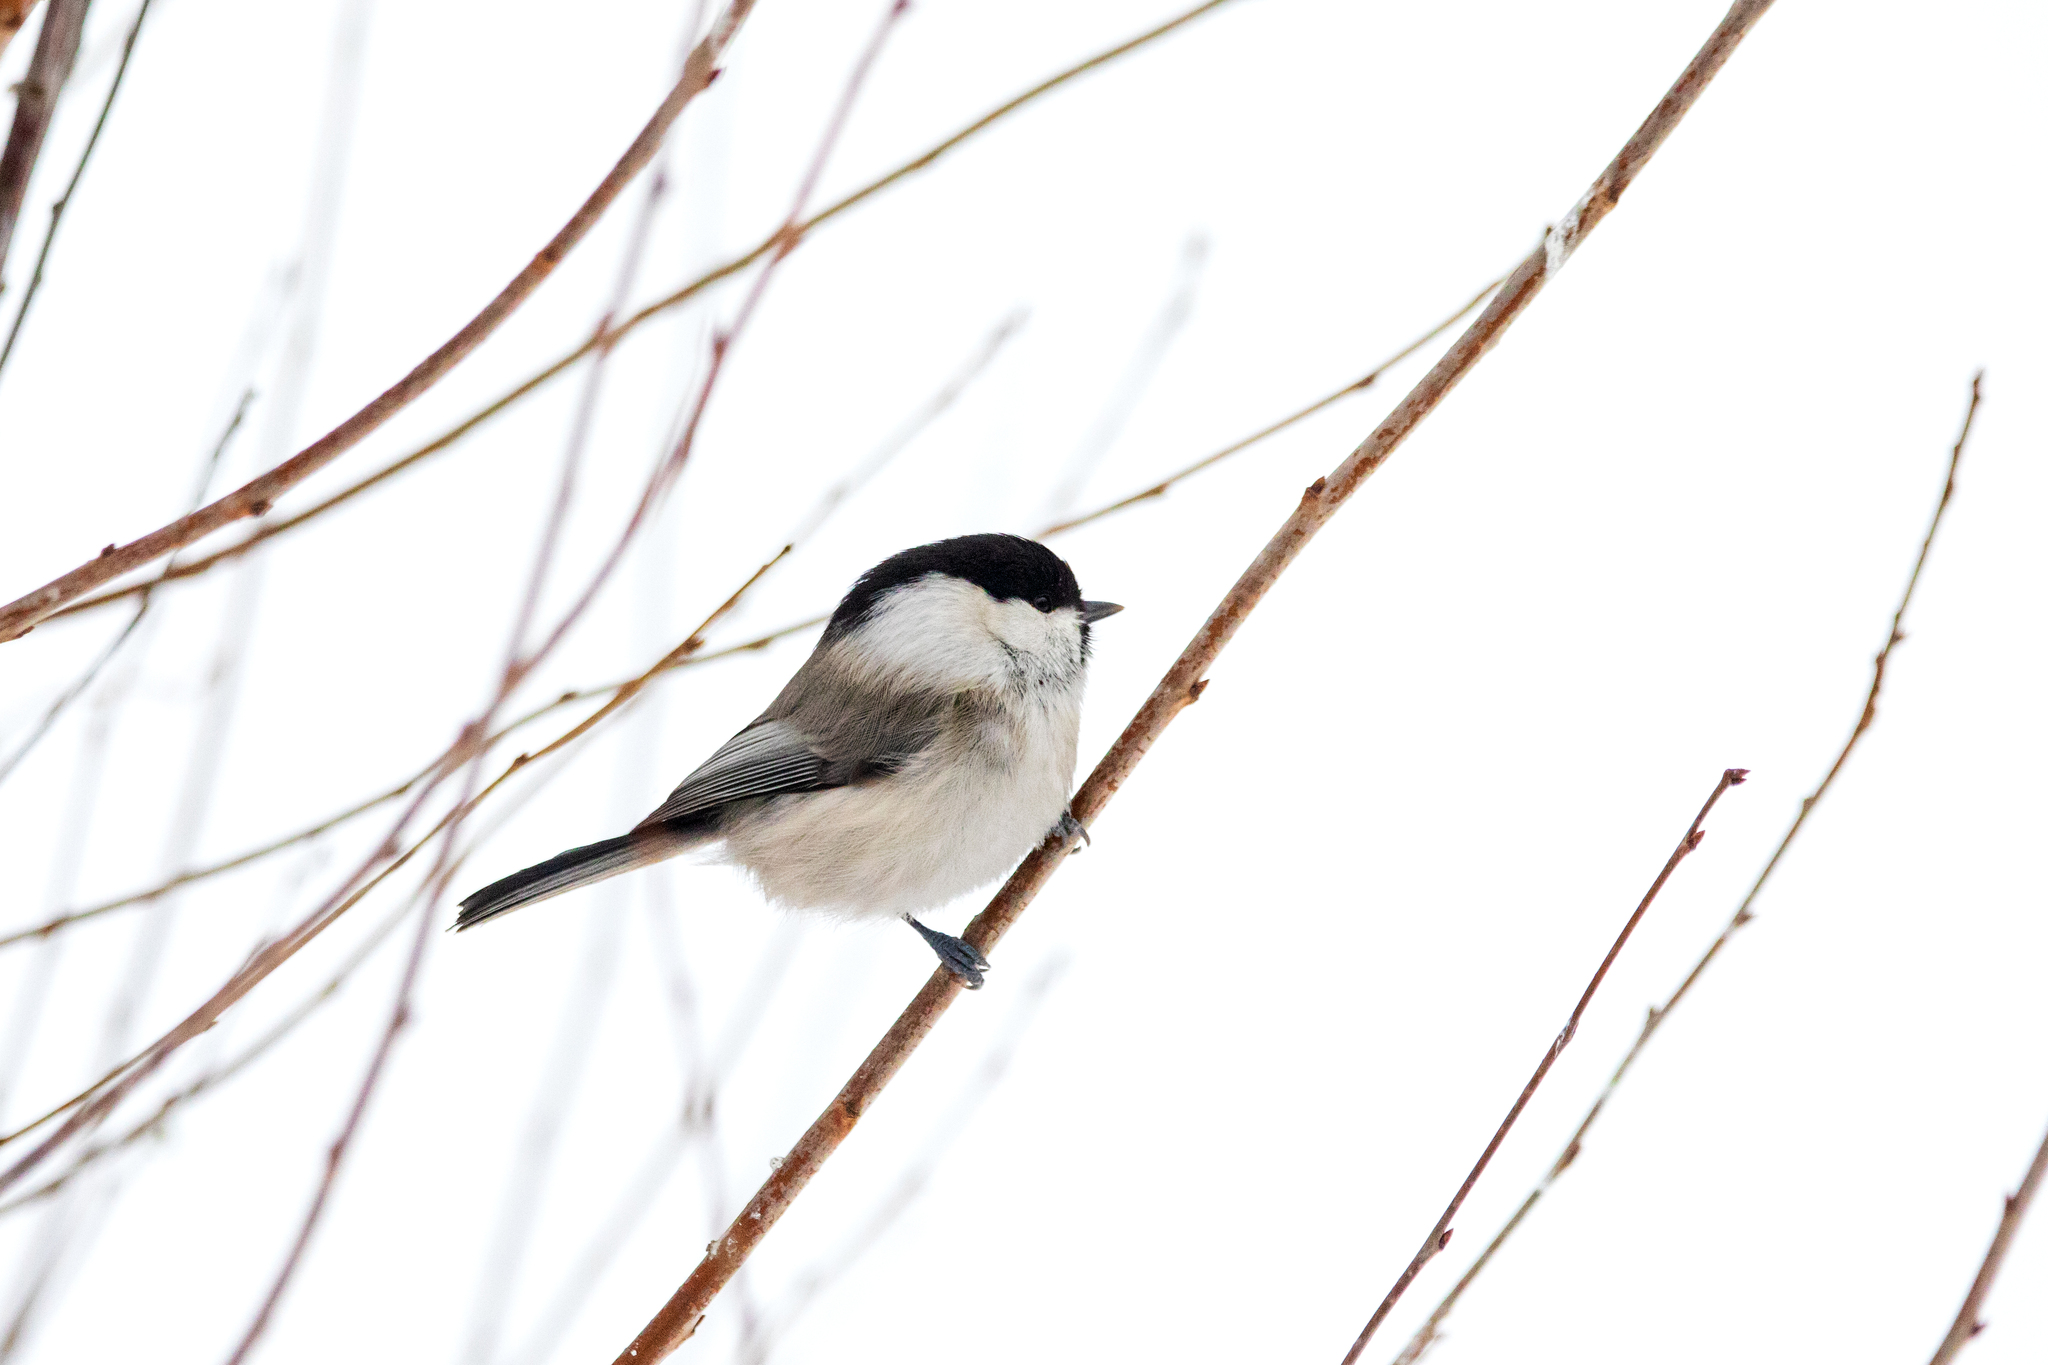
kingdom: Animalia
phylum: Chordata
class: Aves
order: Passeriformes
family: Paridae
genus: Poecile
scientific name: Poecile montanus
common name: Willow tit
